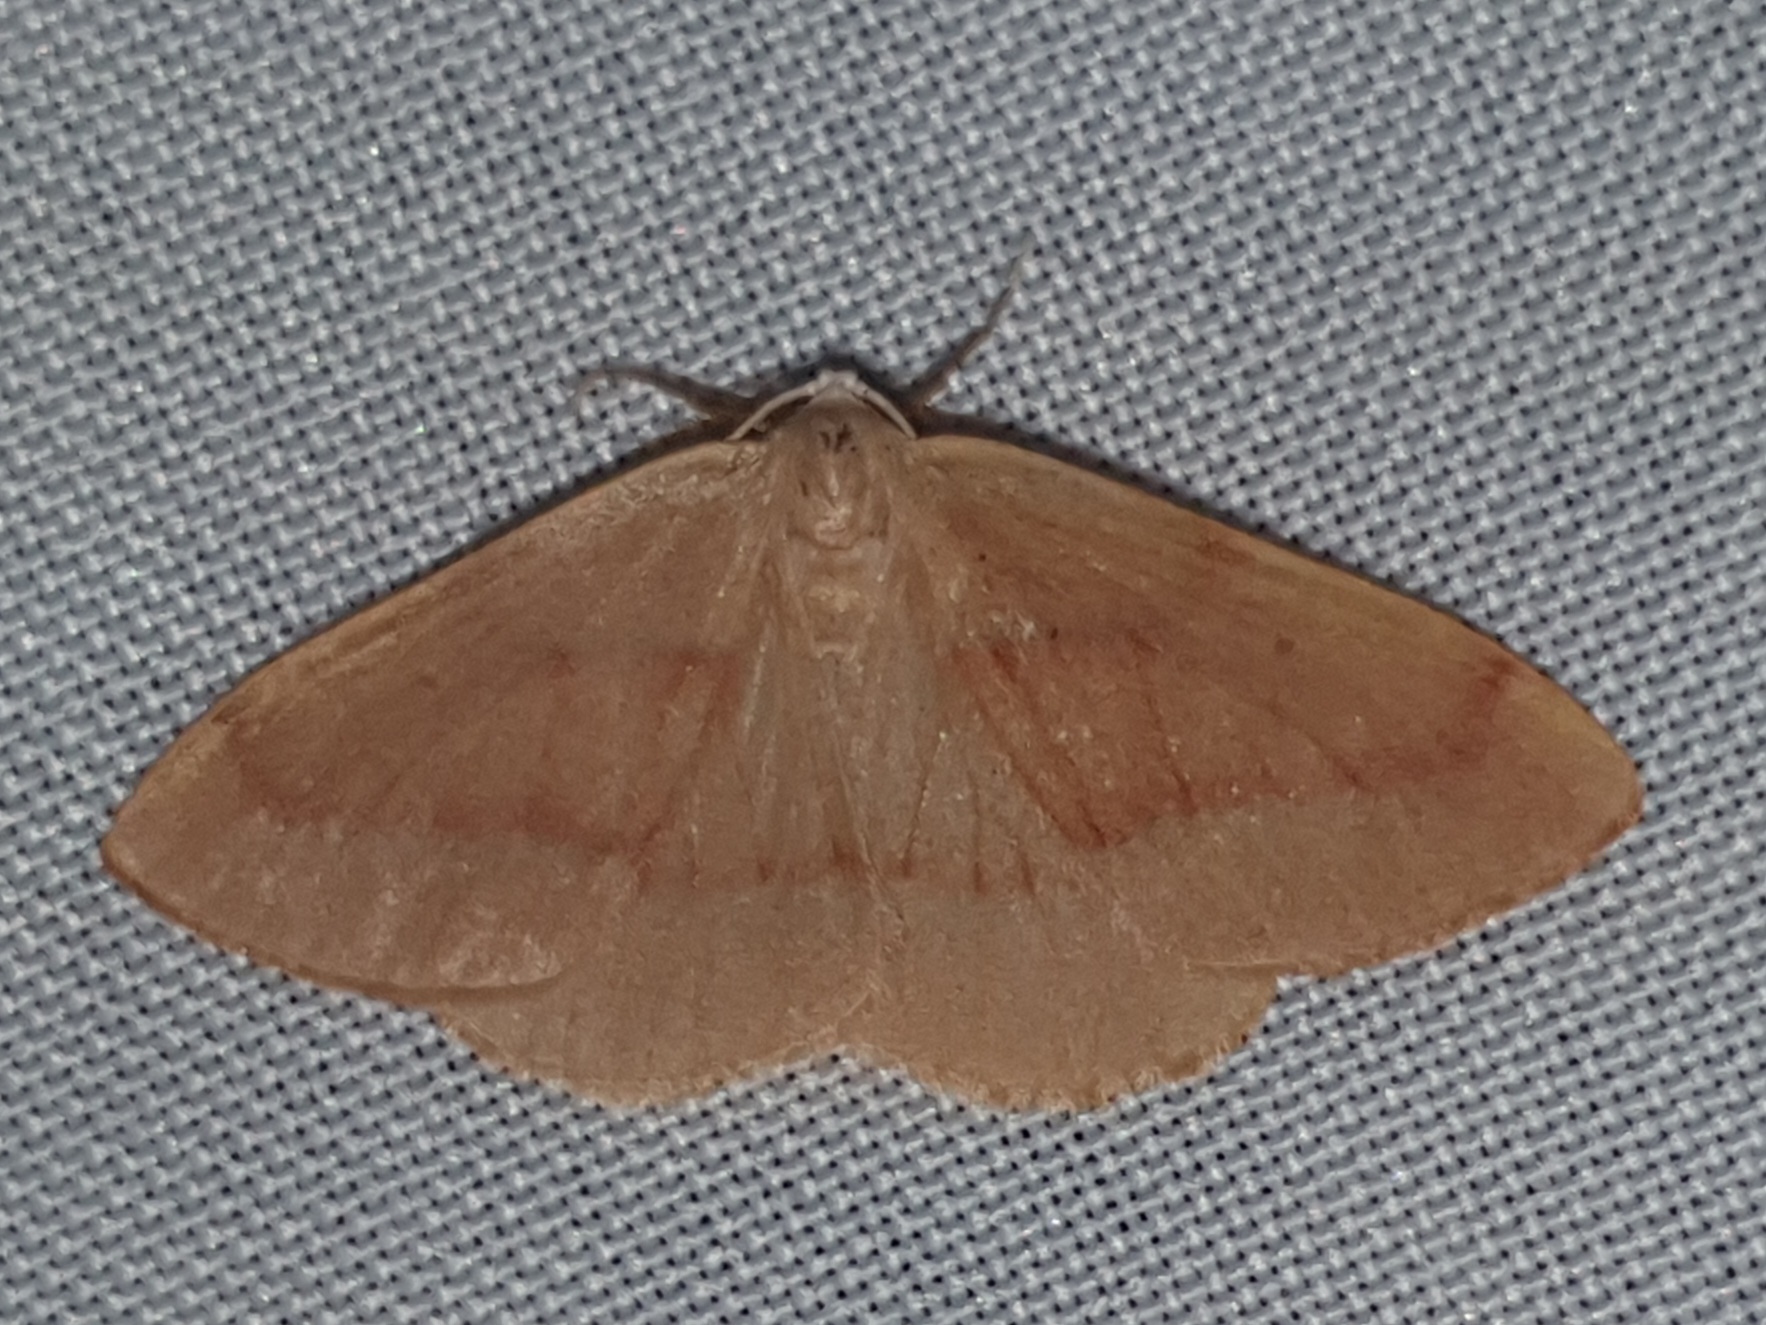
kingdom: Animalia
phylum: Arthropoda
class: Insecta
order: Lepidoptera
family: Geometridae
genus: Hylaea
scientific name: Hylaea fasciaria
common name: Barred red
